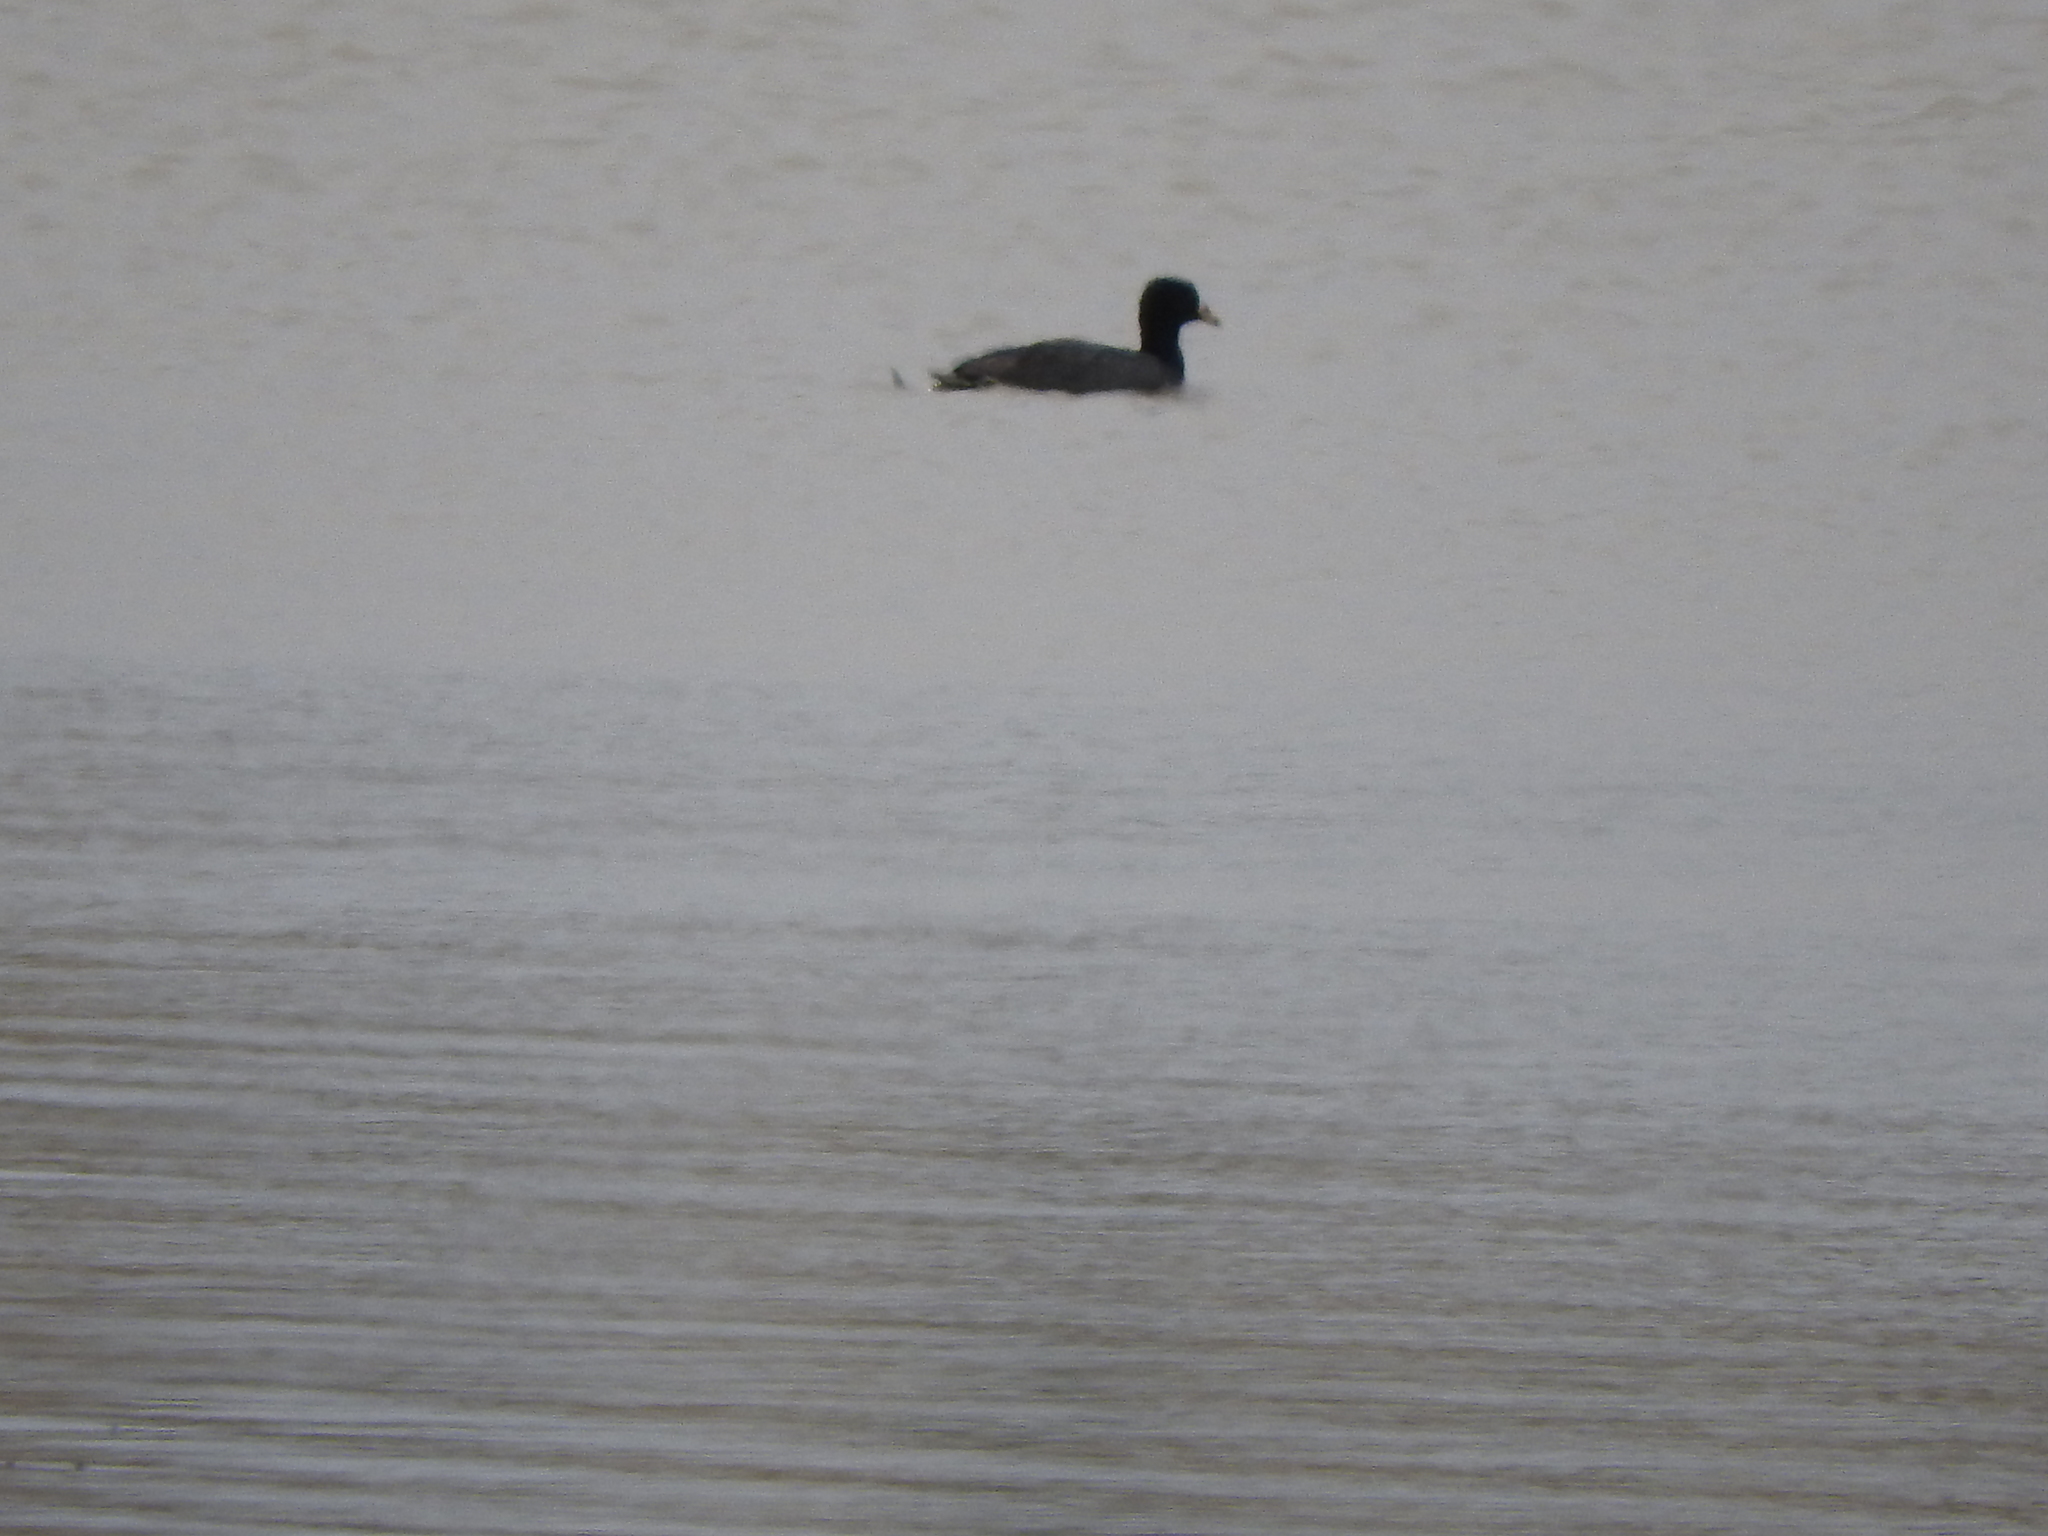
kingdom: Animalia
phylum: Chordata
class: Aves
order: Gruiformes
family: Rallidae
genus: Fulica
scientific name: Fulica americana
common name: American coot
